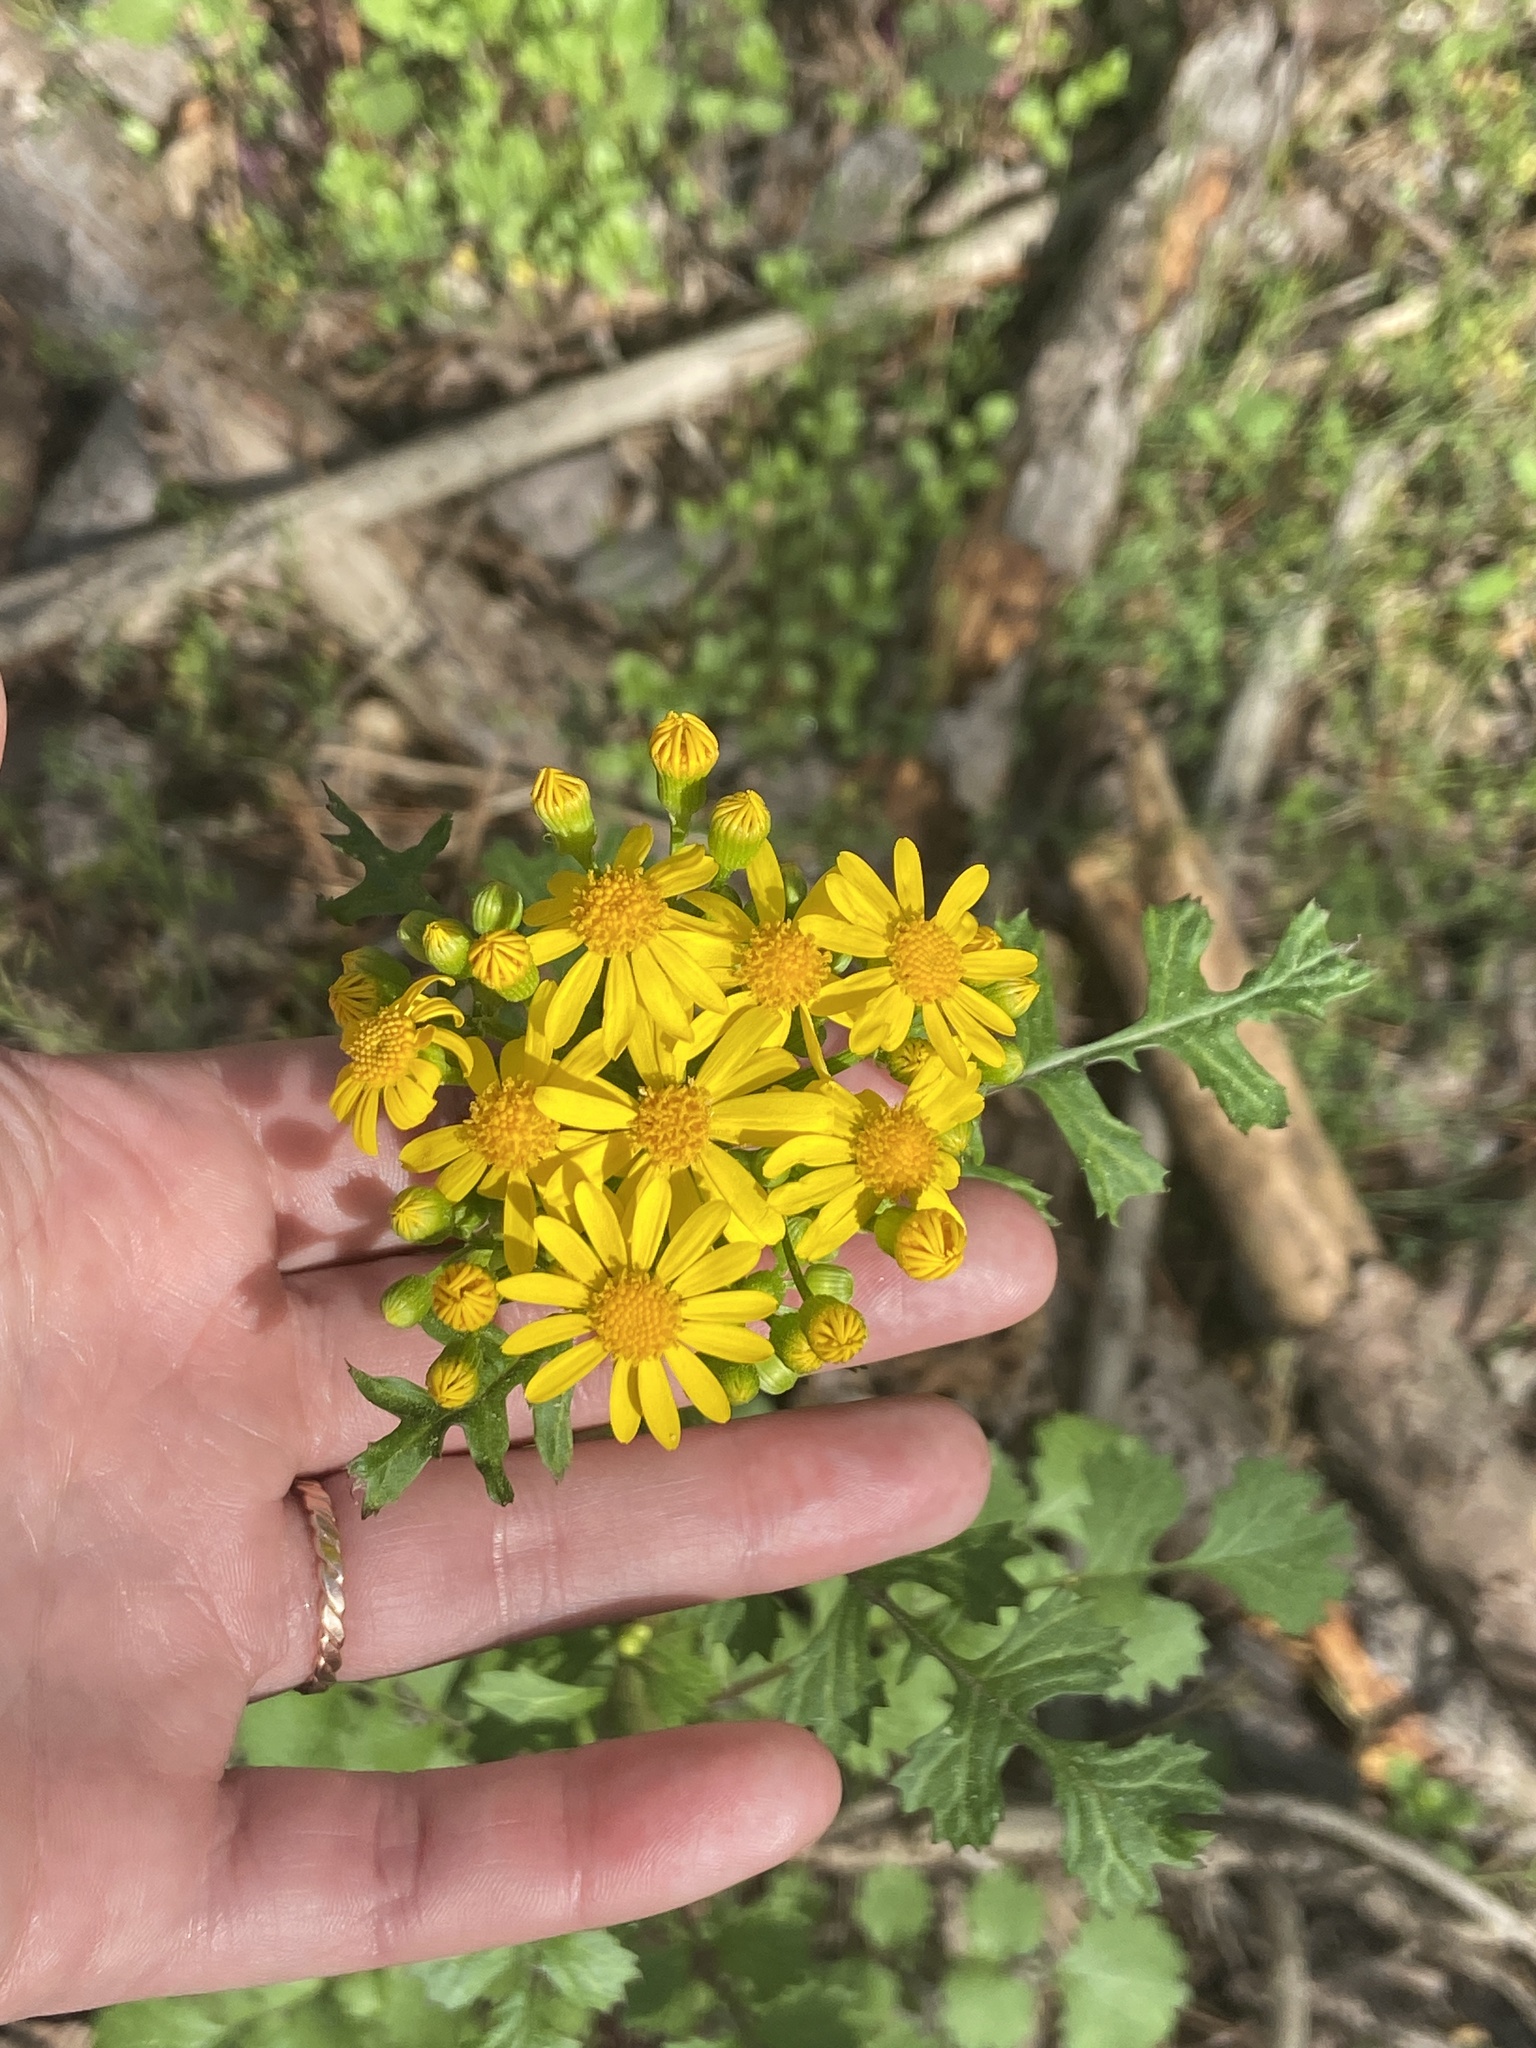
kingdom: Plantae
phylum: Tracheophyta
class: Magnoliopsida
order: Asterales
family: Asteraceae
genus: Packera
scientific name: Packera glabella
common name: Butterweed
